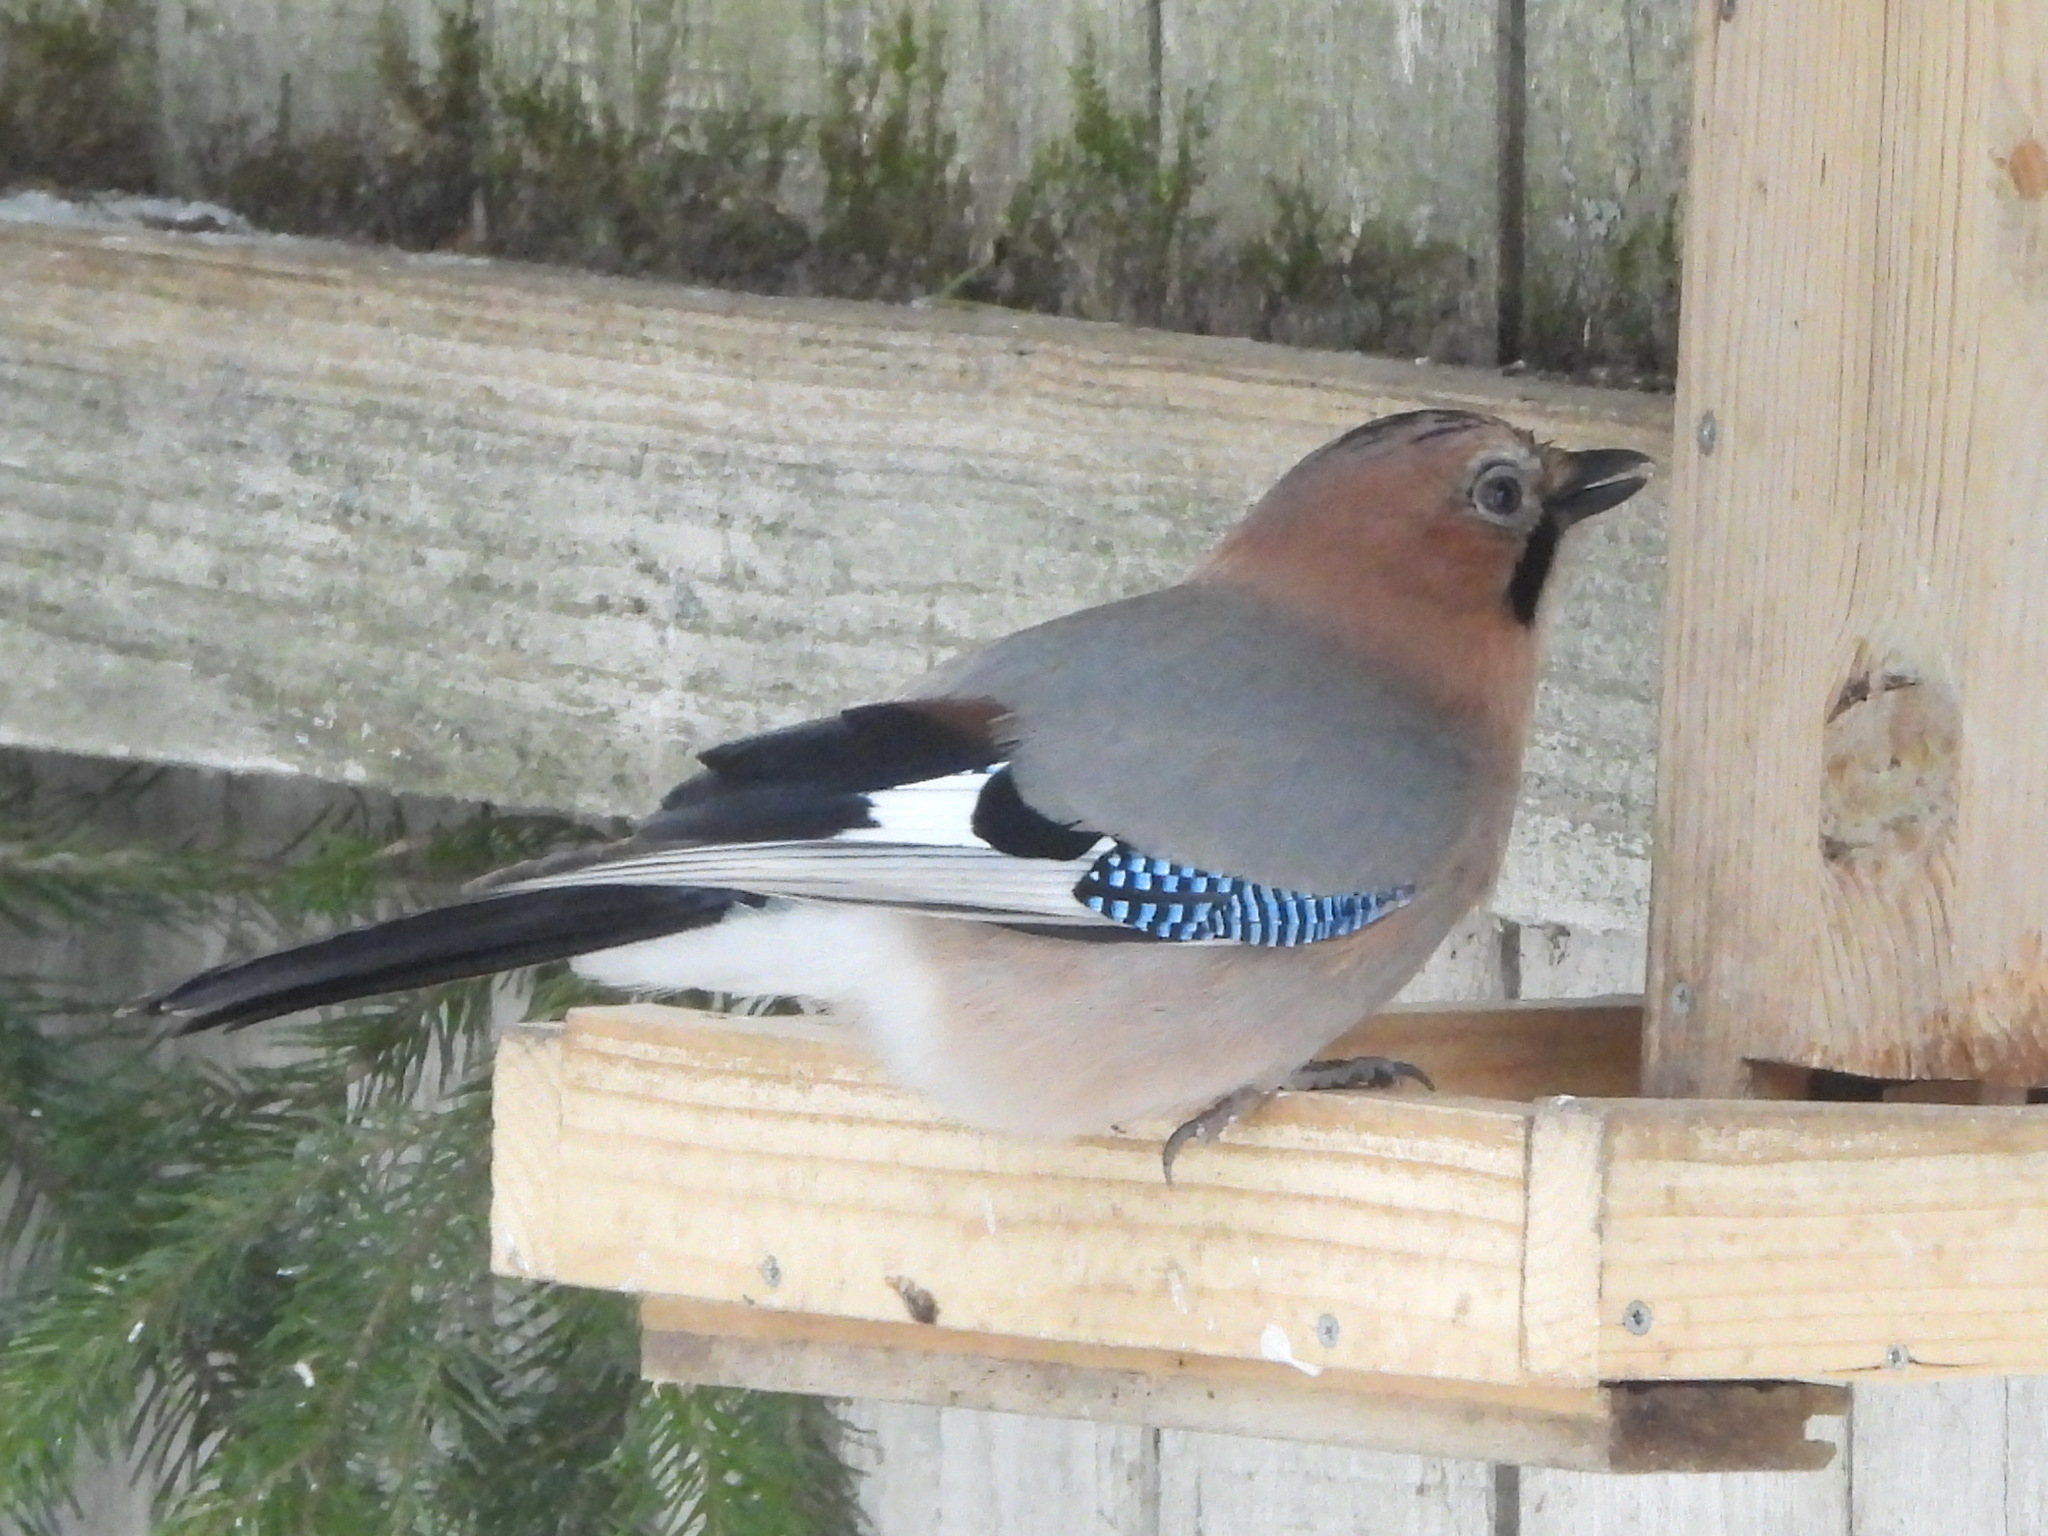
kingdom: Animalia
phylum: Chordata
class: Aves
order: Passeriformes
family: Corvidae
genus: Garrulus
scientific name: Garrulus glandarius
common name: Eurasian jay
